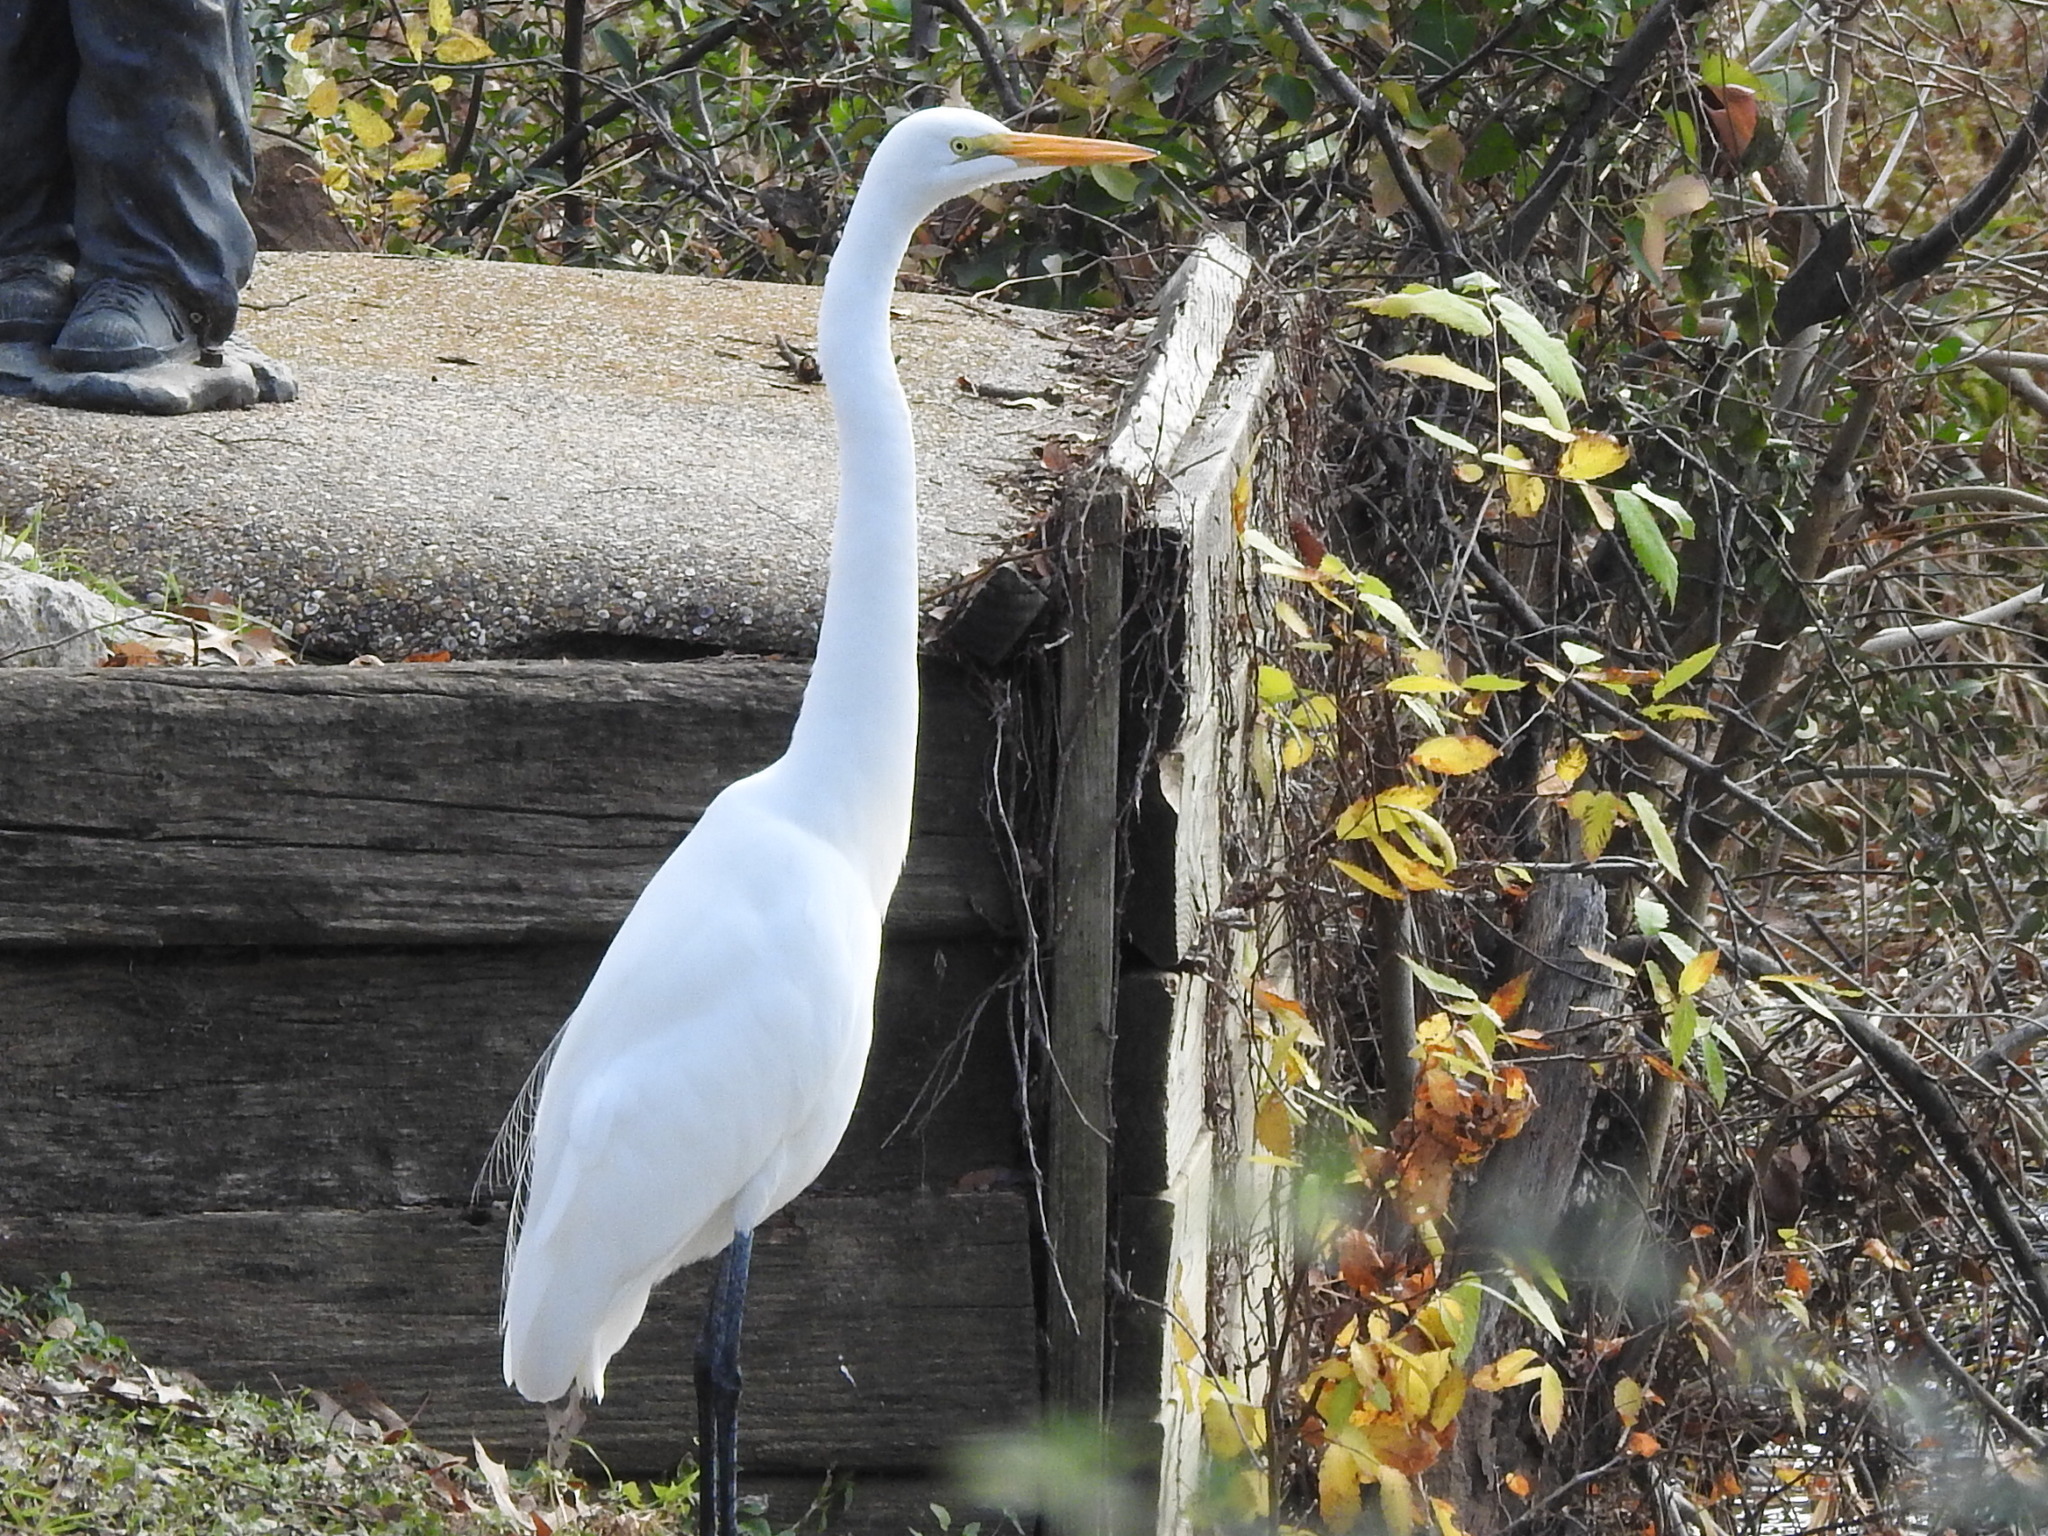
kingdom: Animalia
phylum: Chordata
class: Aves
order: Pelecaniformes
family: Ardeidae
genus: Ardea
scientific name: Ardea alba
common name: Great egret
